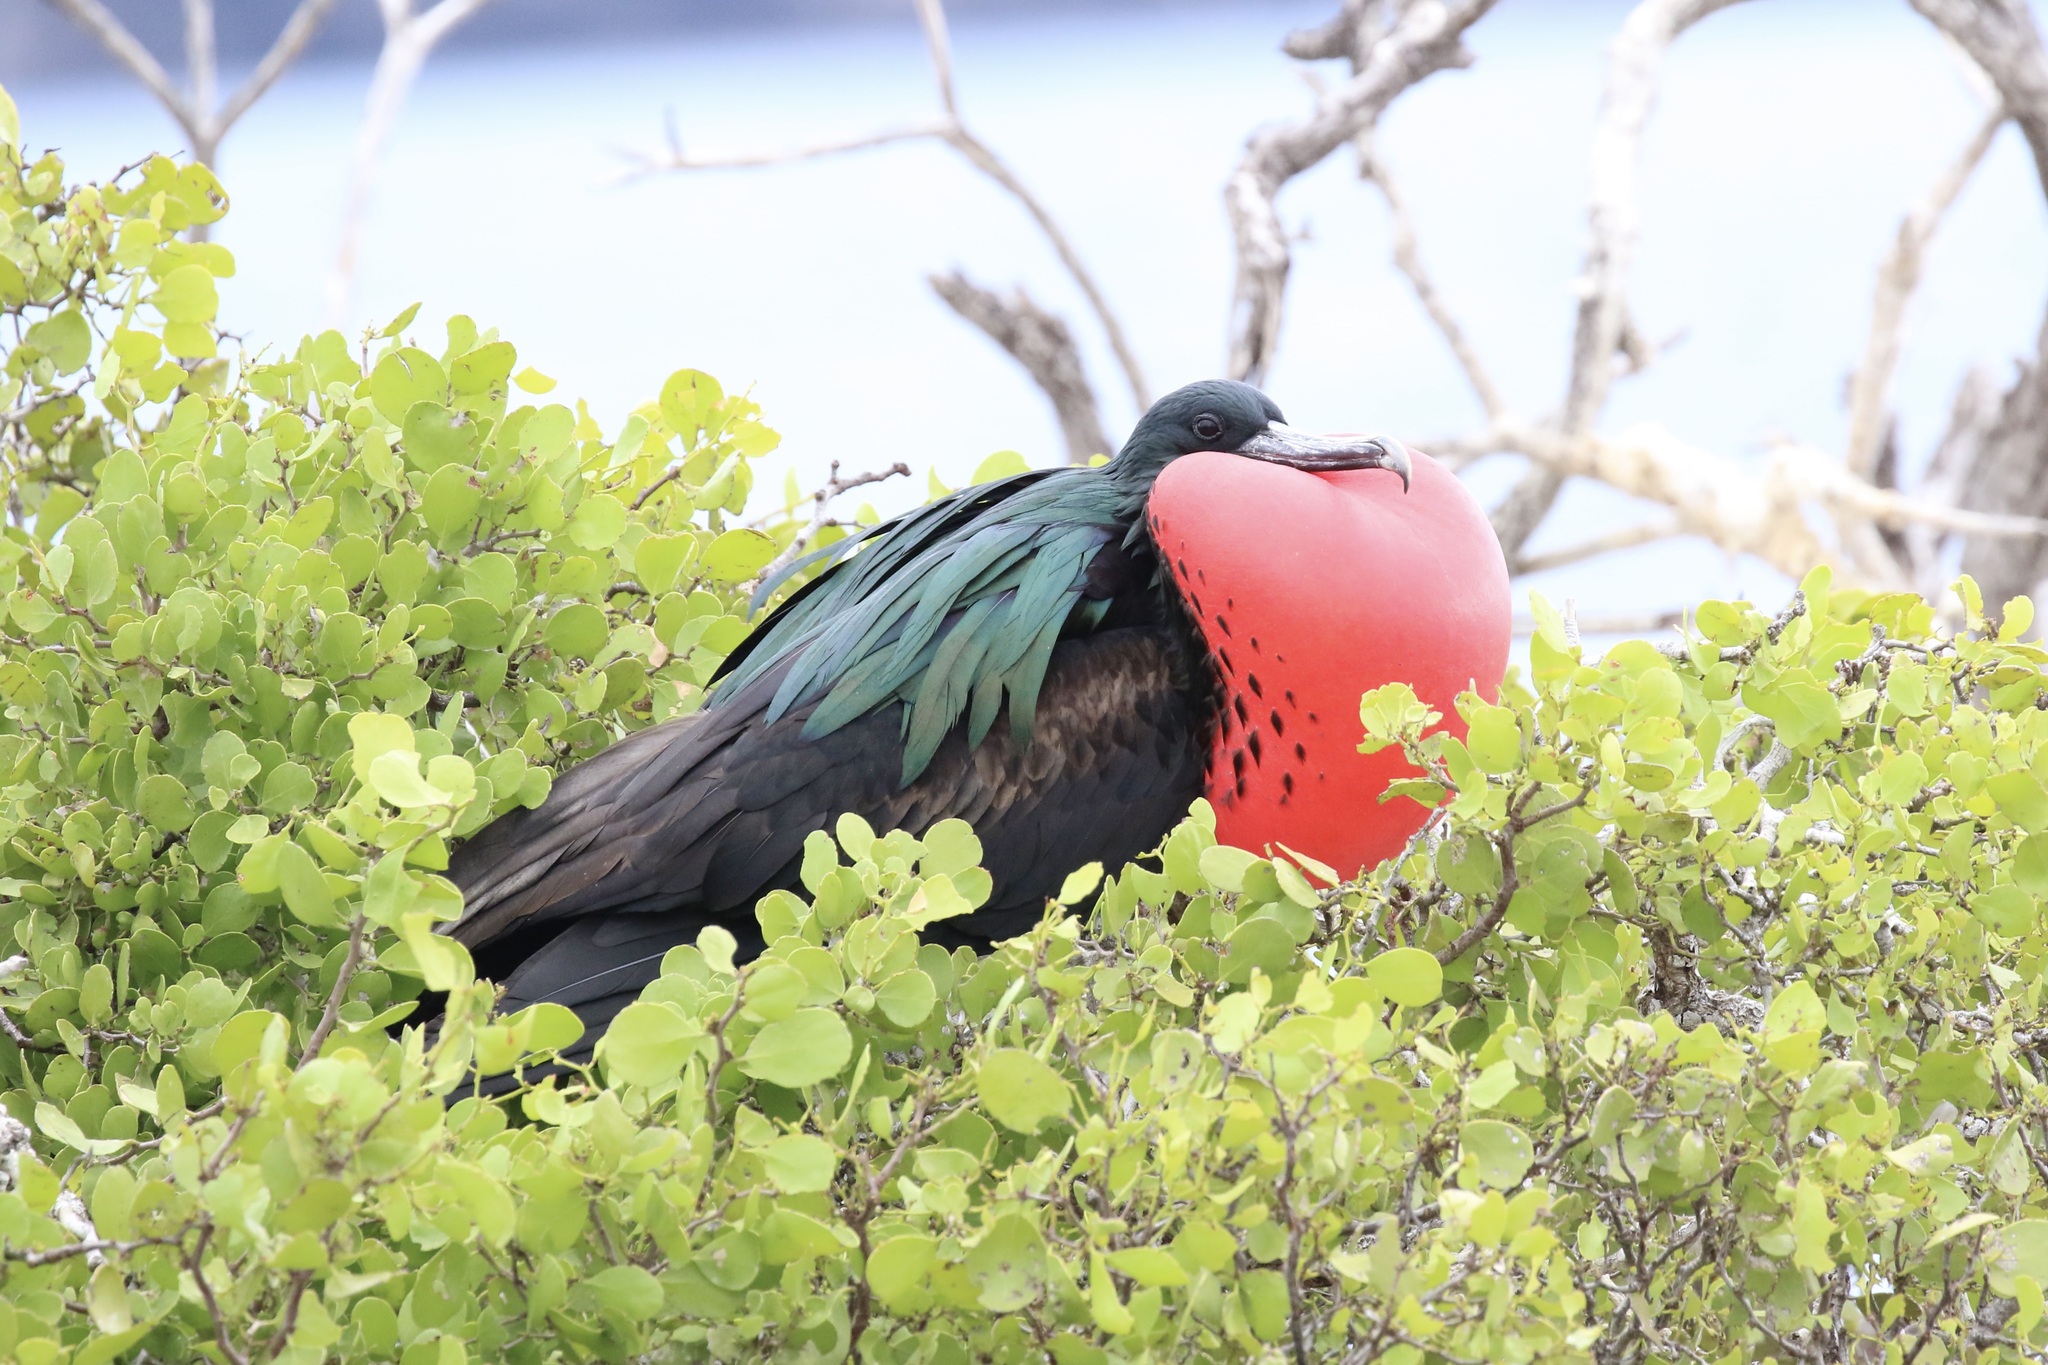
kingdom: Animalia
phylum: Chordata
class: Aves
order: Suliformes
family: Fregatidae
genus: Fregata
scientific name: Fregata minor
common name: Great frigatebird
